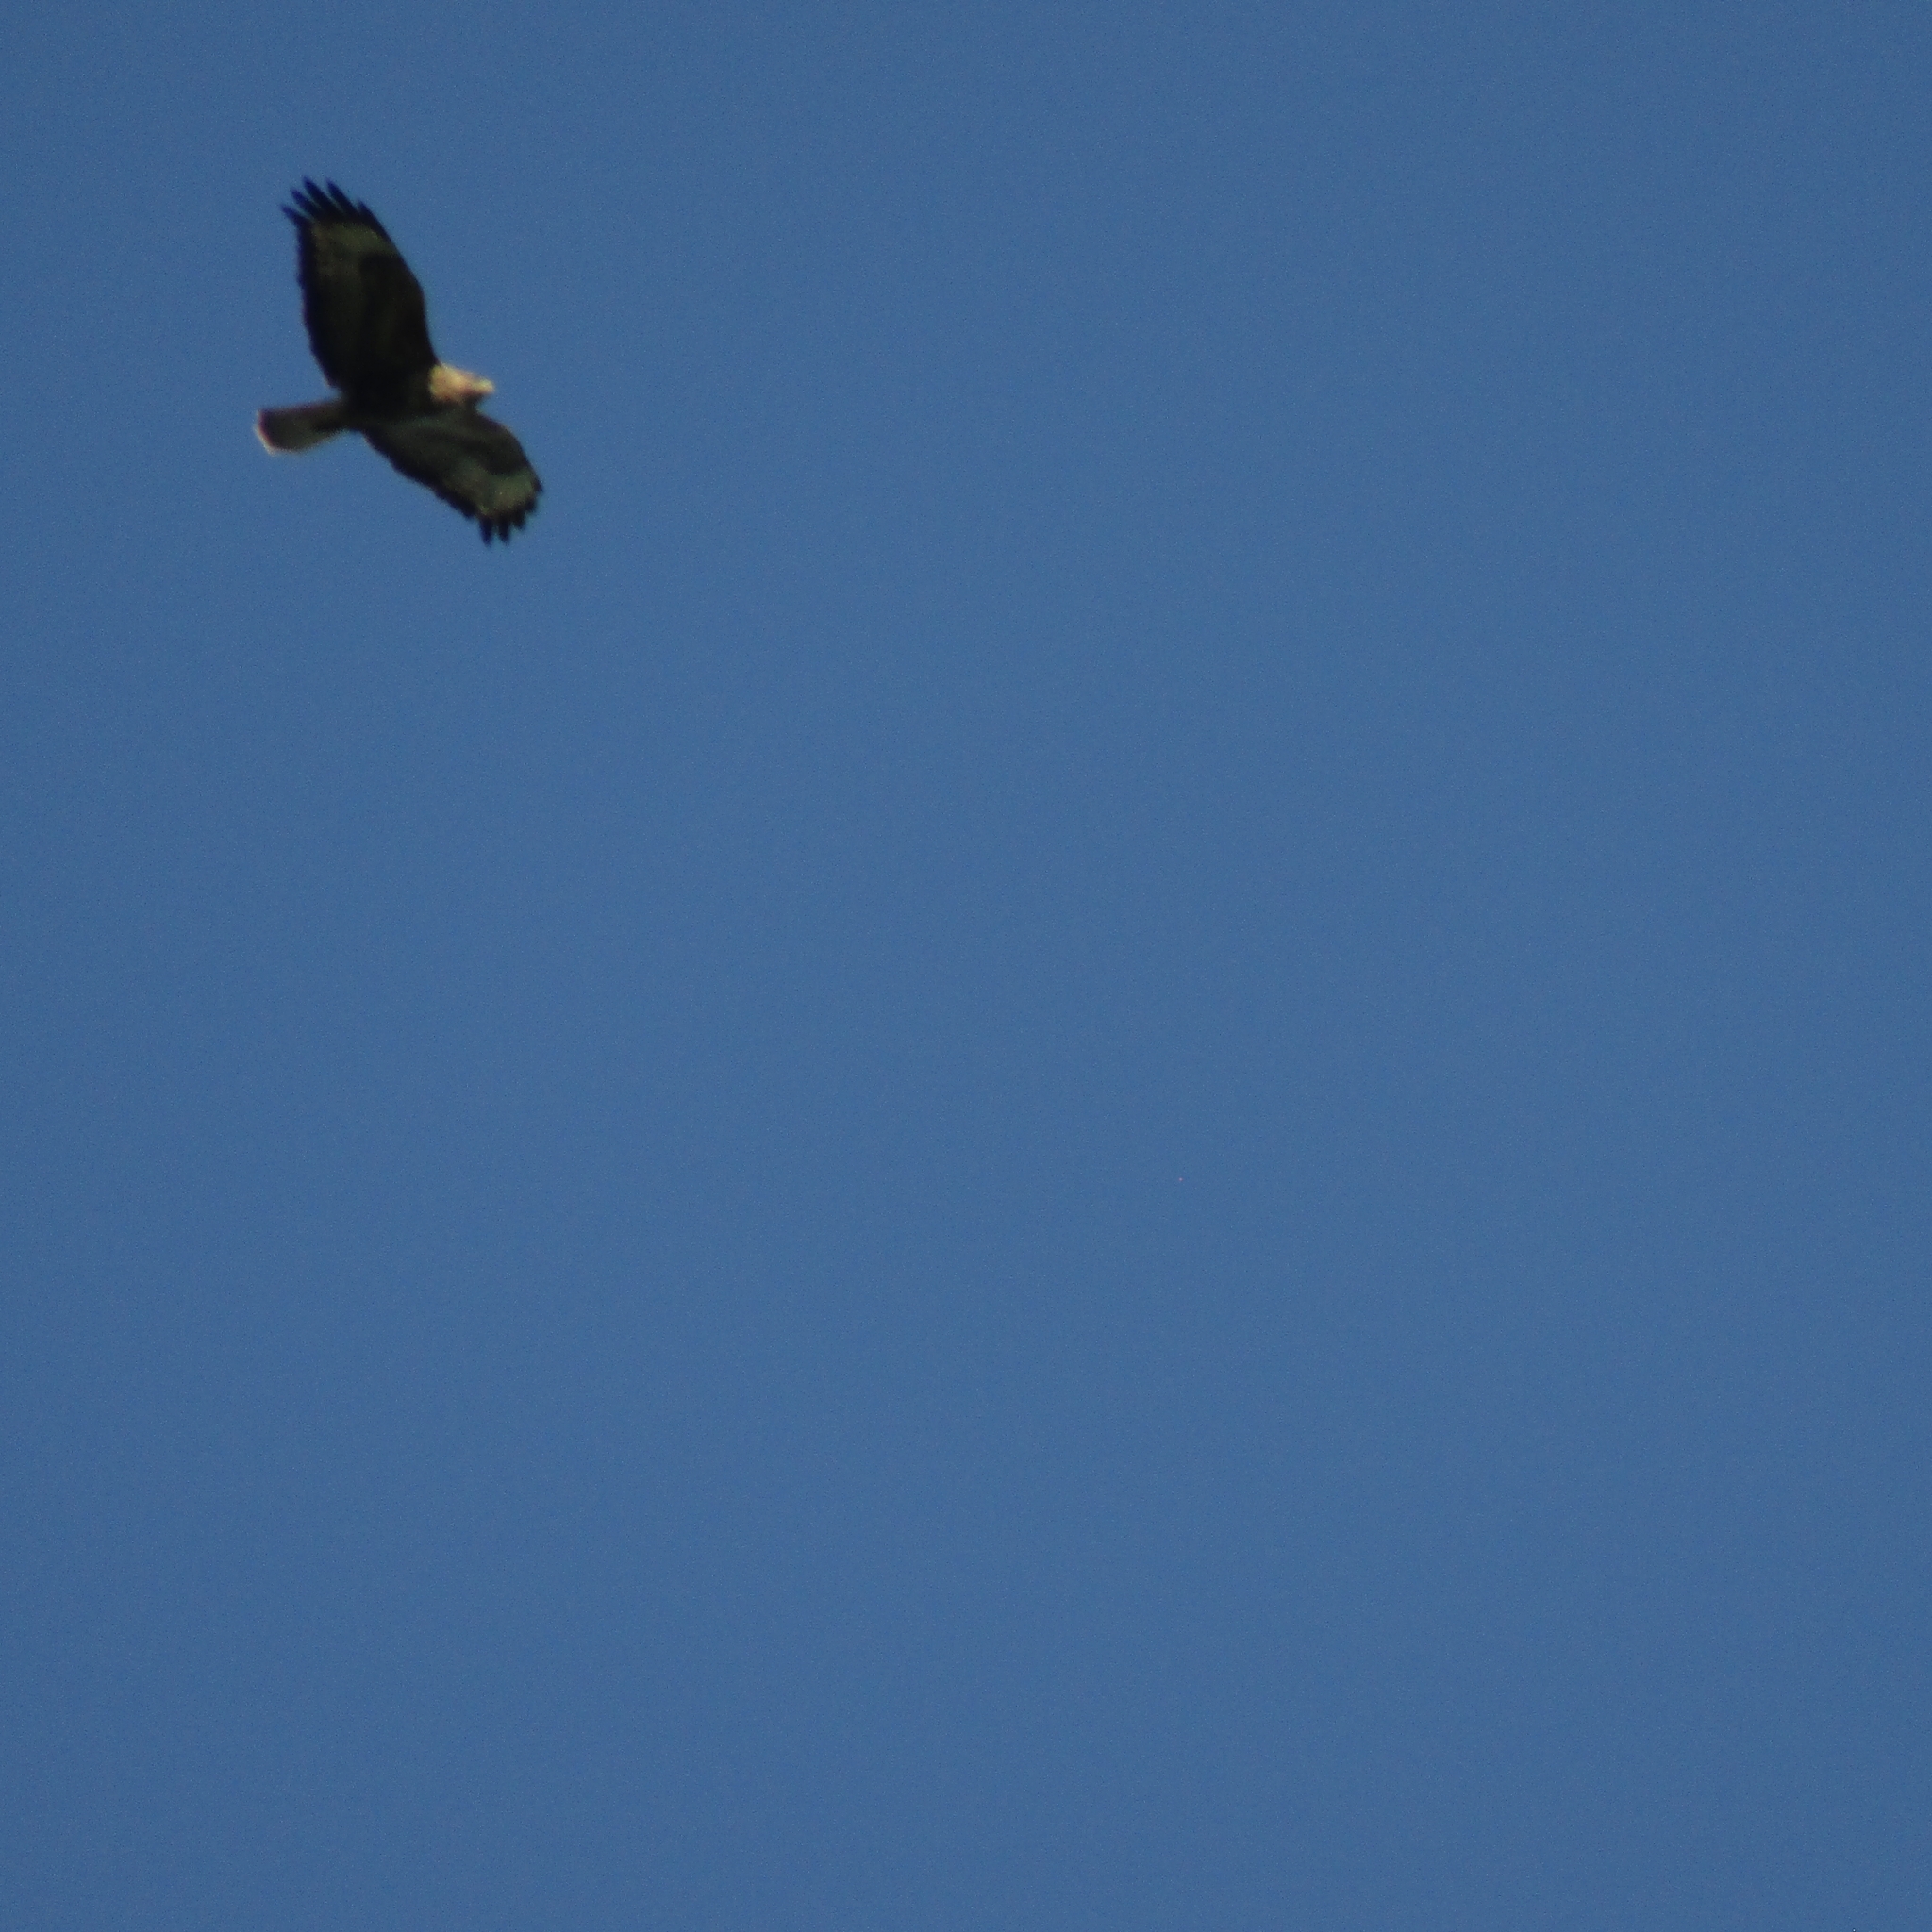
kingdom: Animalia
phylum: Chordata
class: Aves
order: Accipitriformes
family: Accipitridae
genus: Buteo
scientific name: Buteo buteo
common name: Common buzzard
